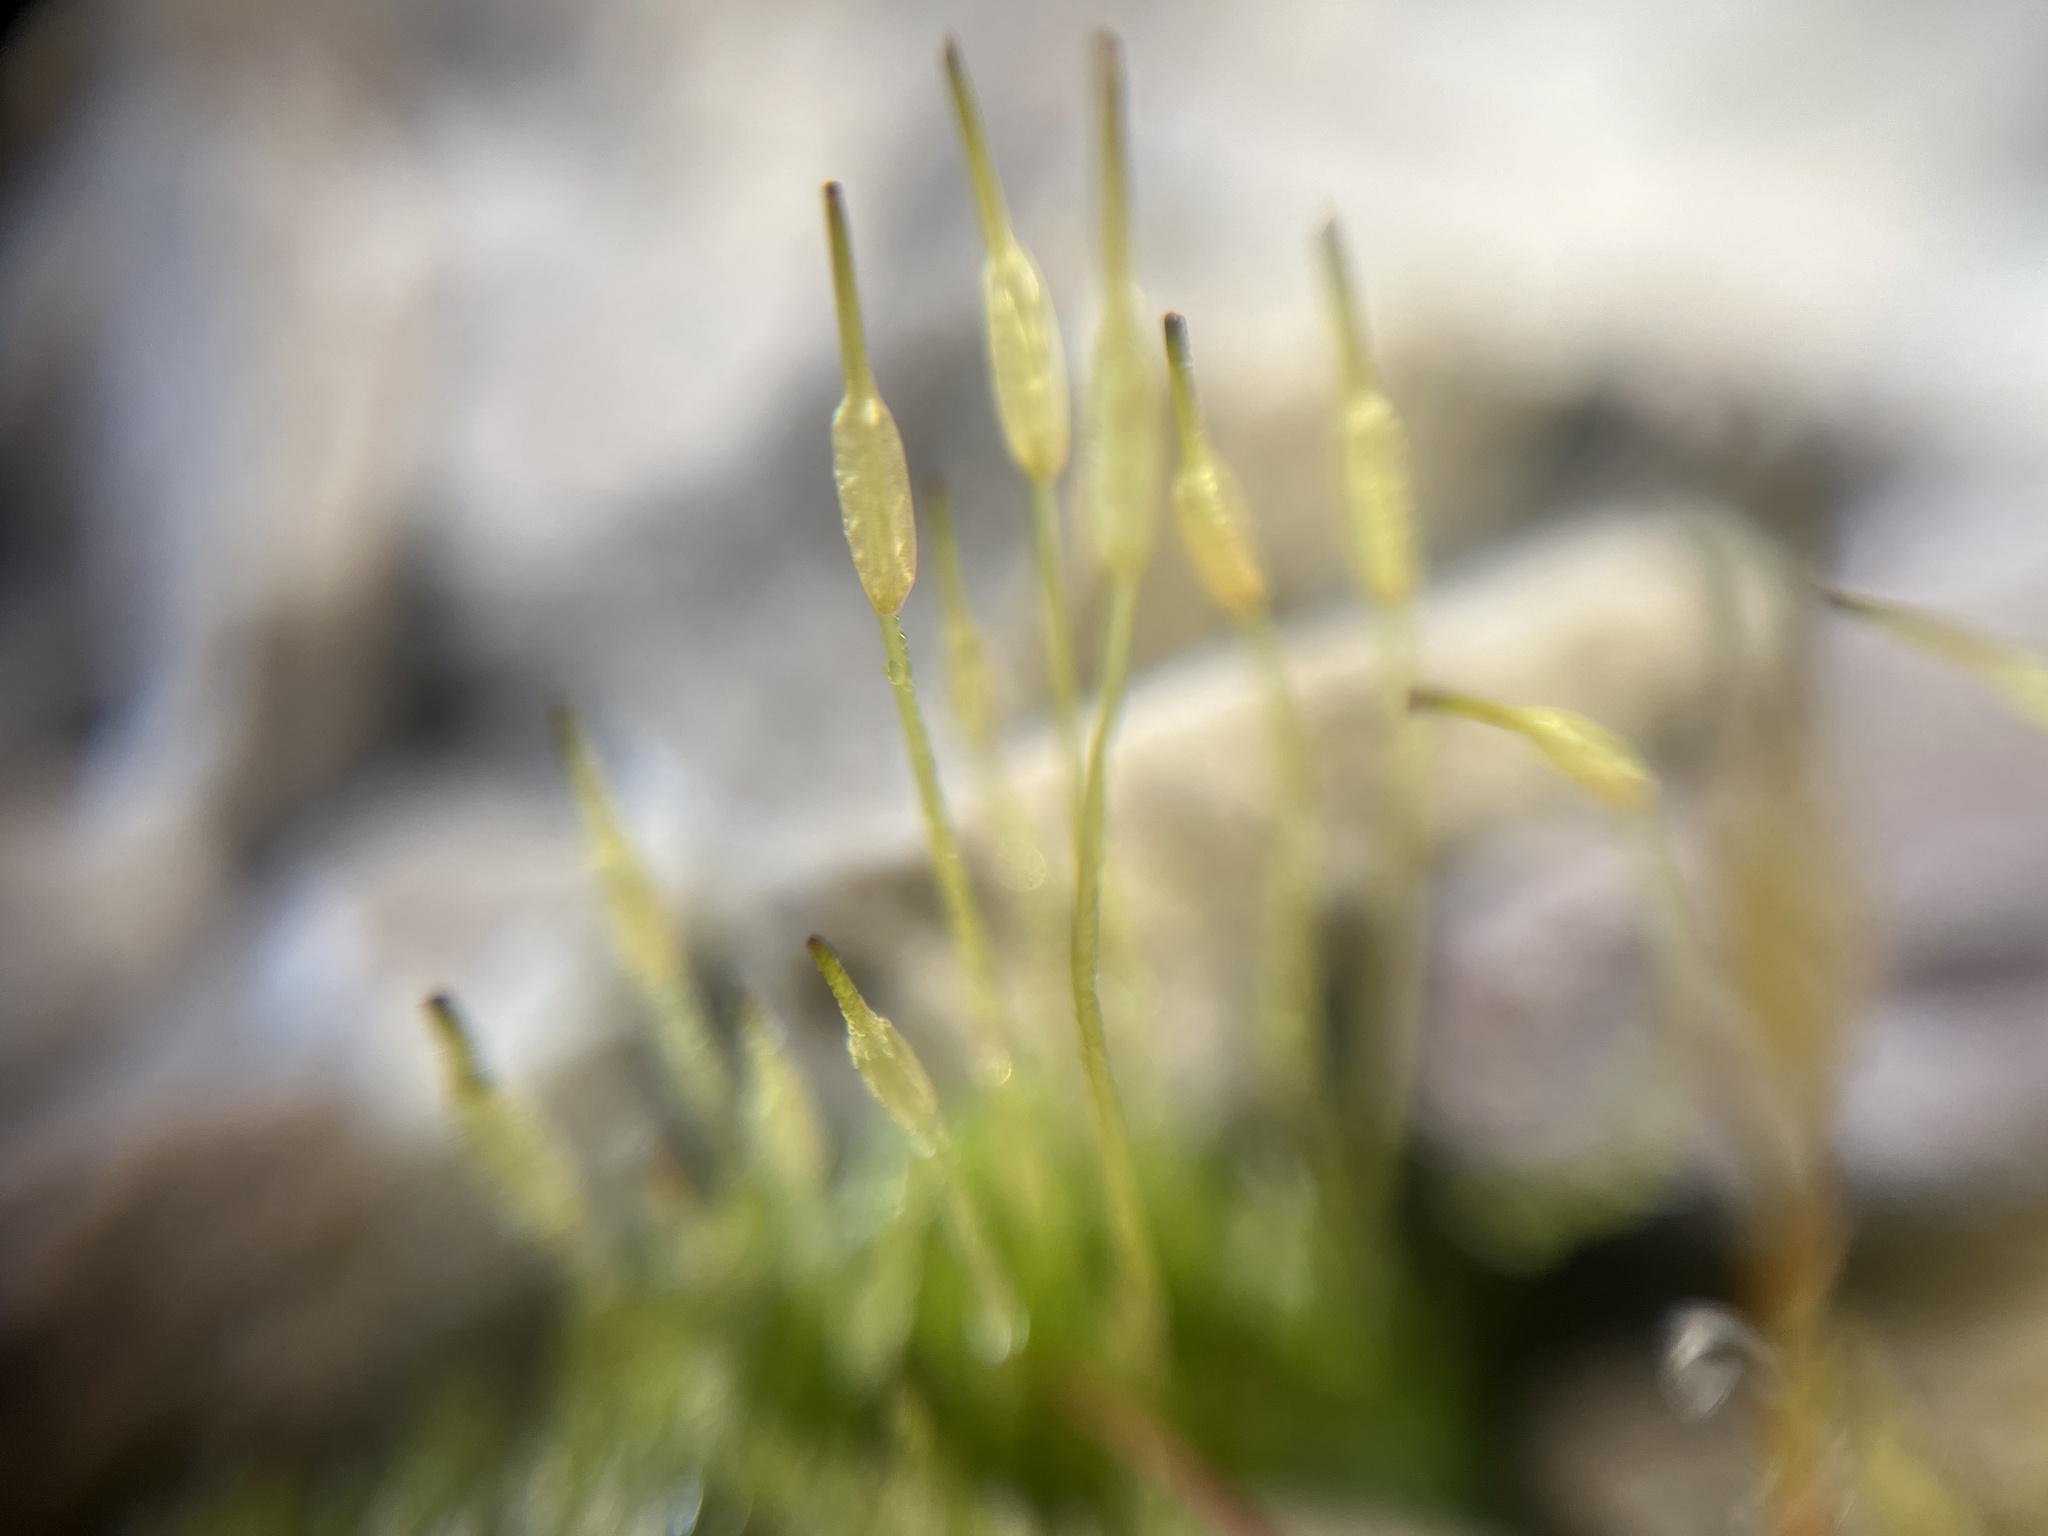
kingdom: Plantae
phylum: Bryophyta
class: Bryopsida
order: Funariales
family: Funariaceae
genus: Funaria
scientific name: Funaria hygrometrica
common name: Common cord moss
